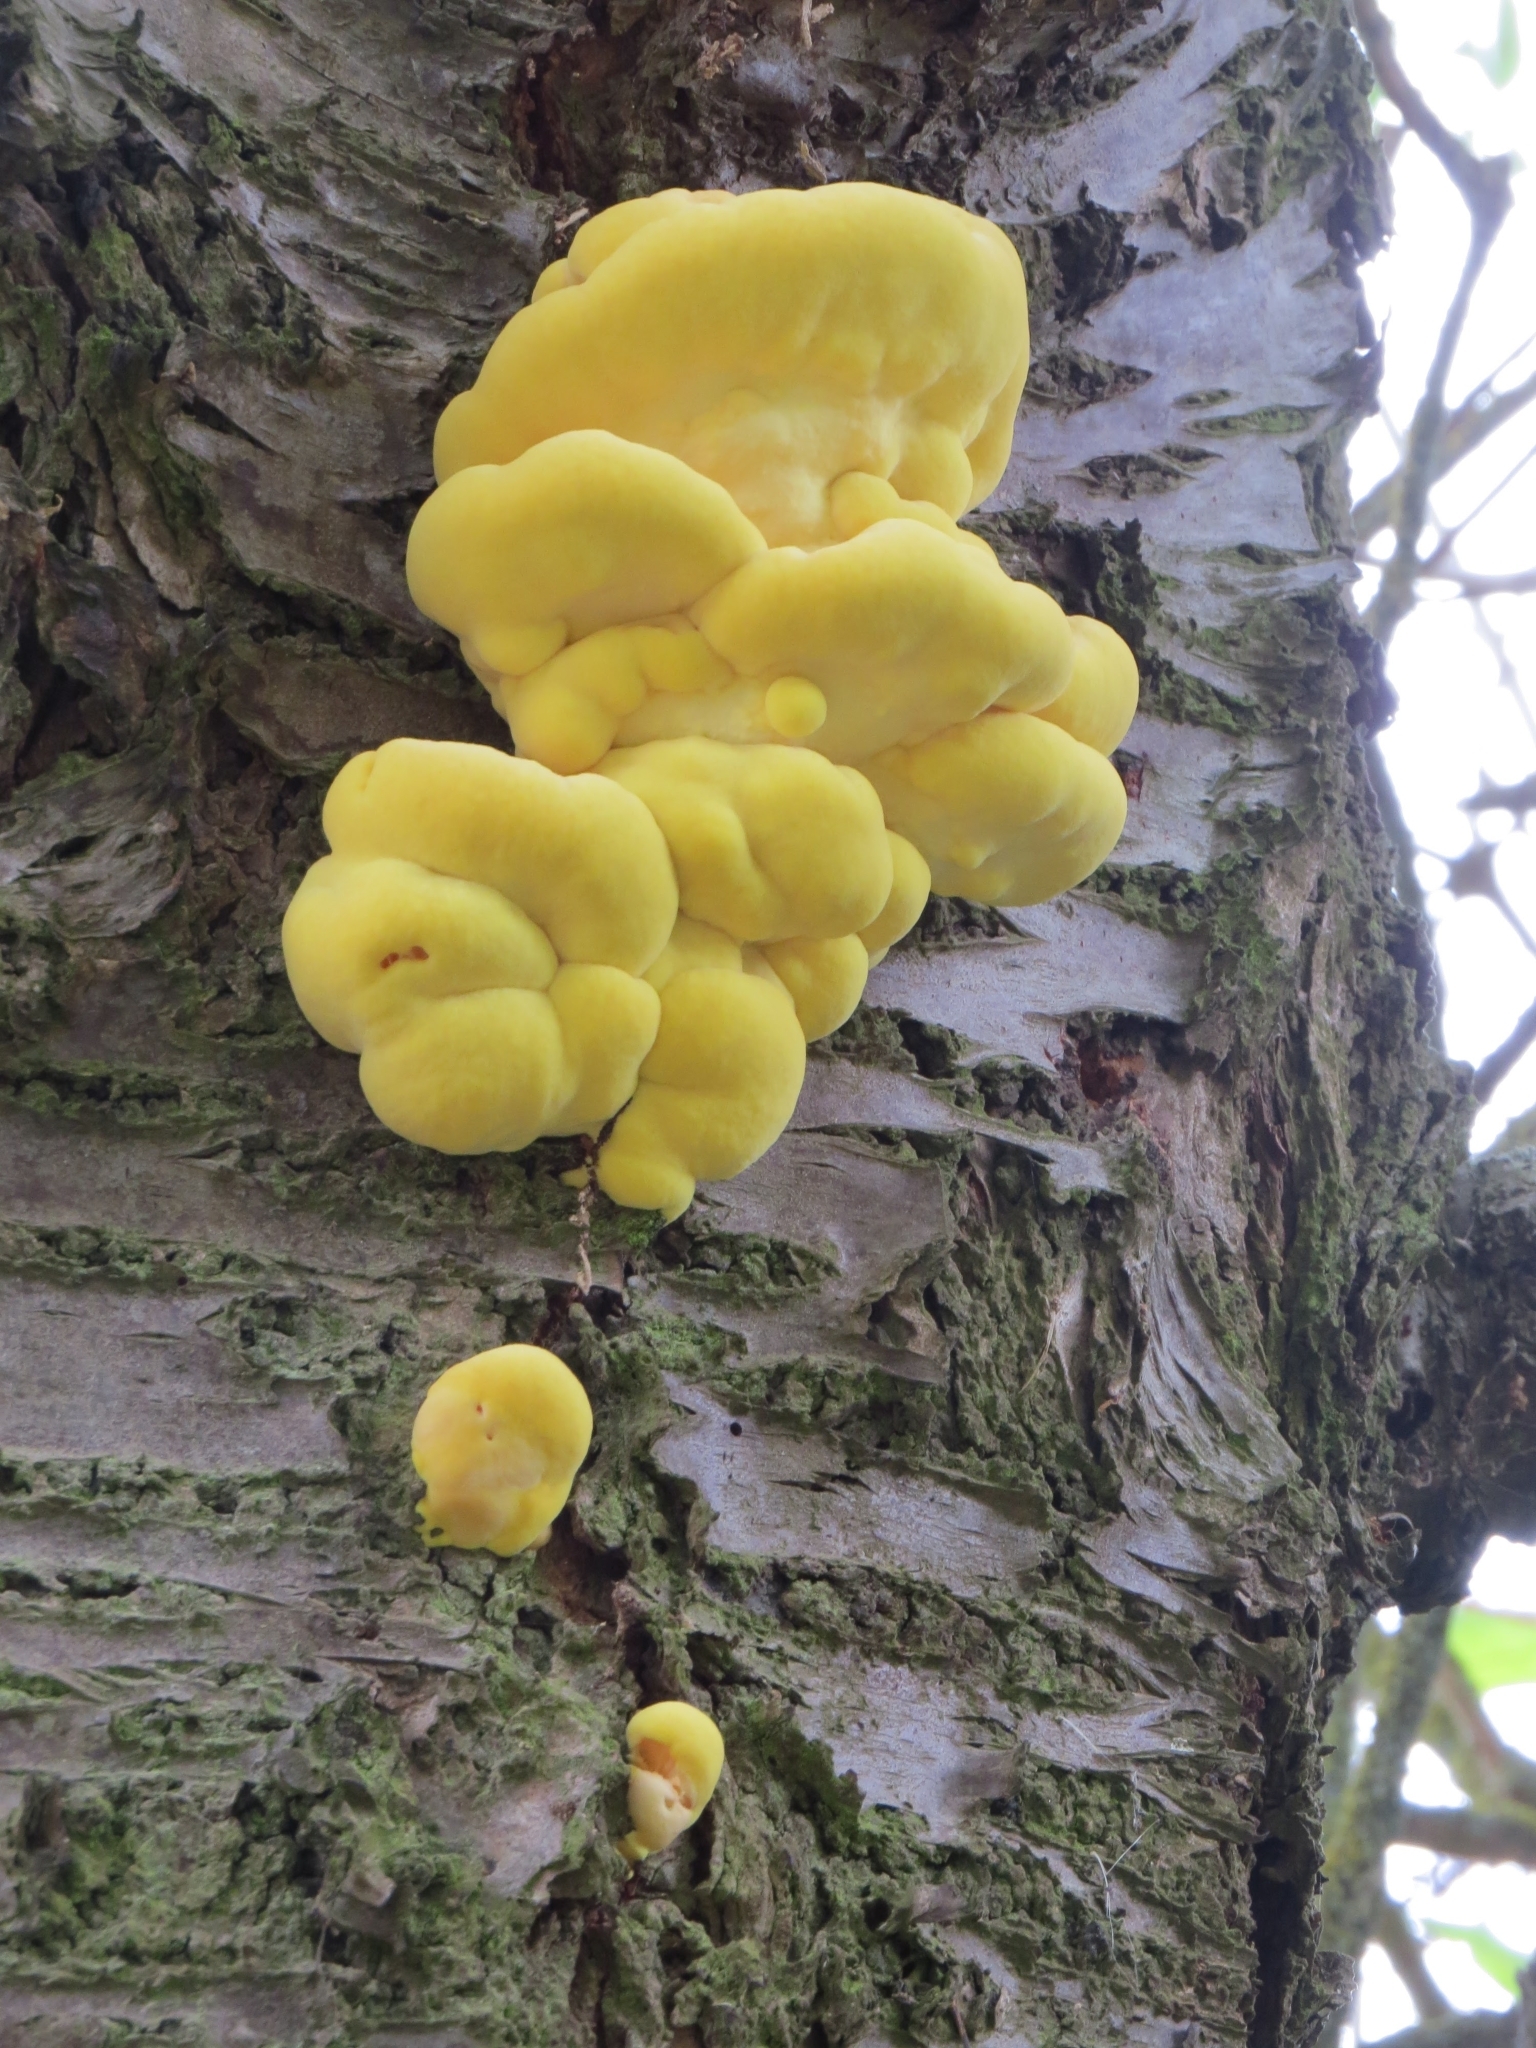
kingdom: Fungi
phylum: Basidiomycota
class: Agaricomycetes
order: Polyporales
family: Laetiporaceae
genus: Laetiporus
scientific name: Laetiporus sulphureus
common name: Chicken of the woods
